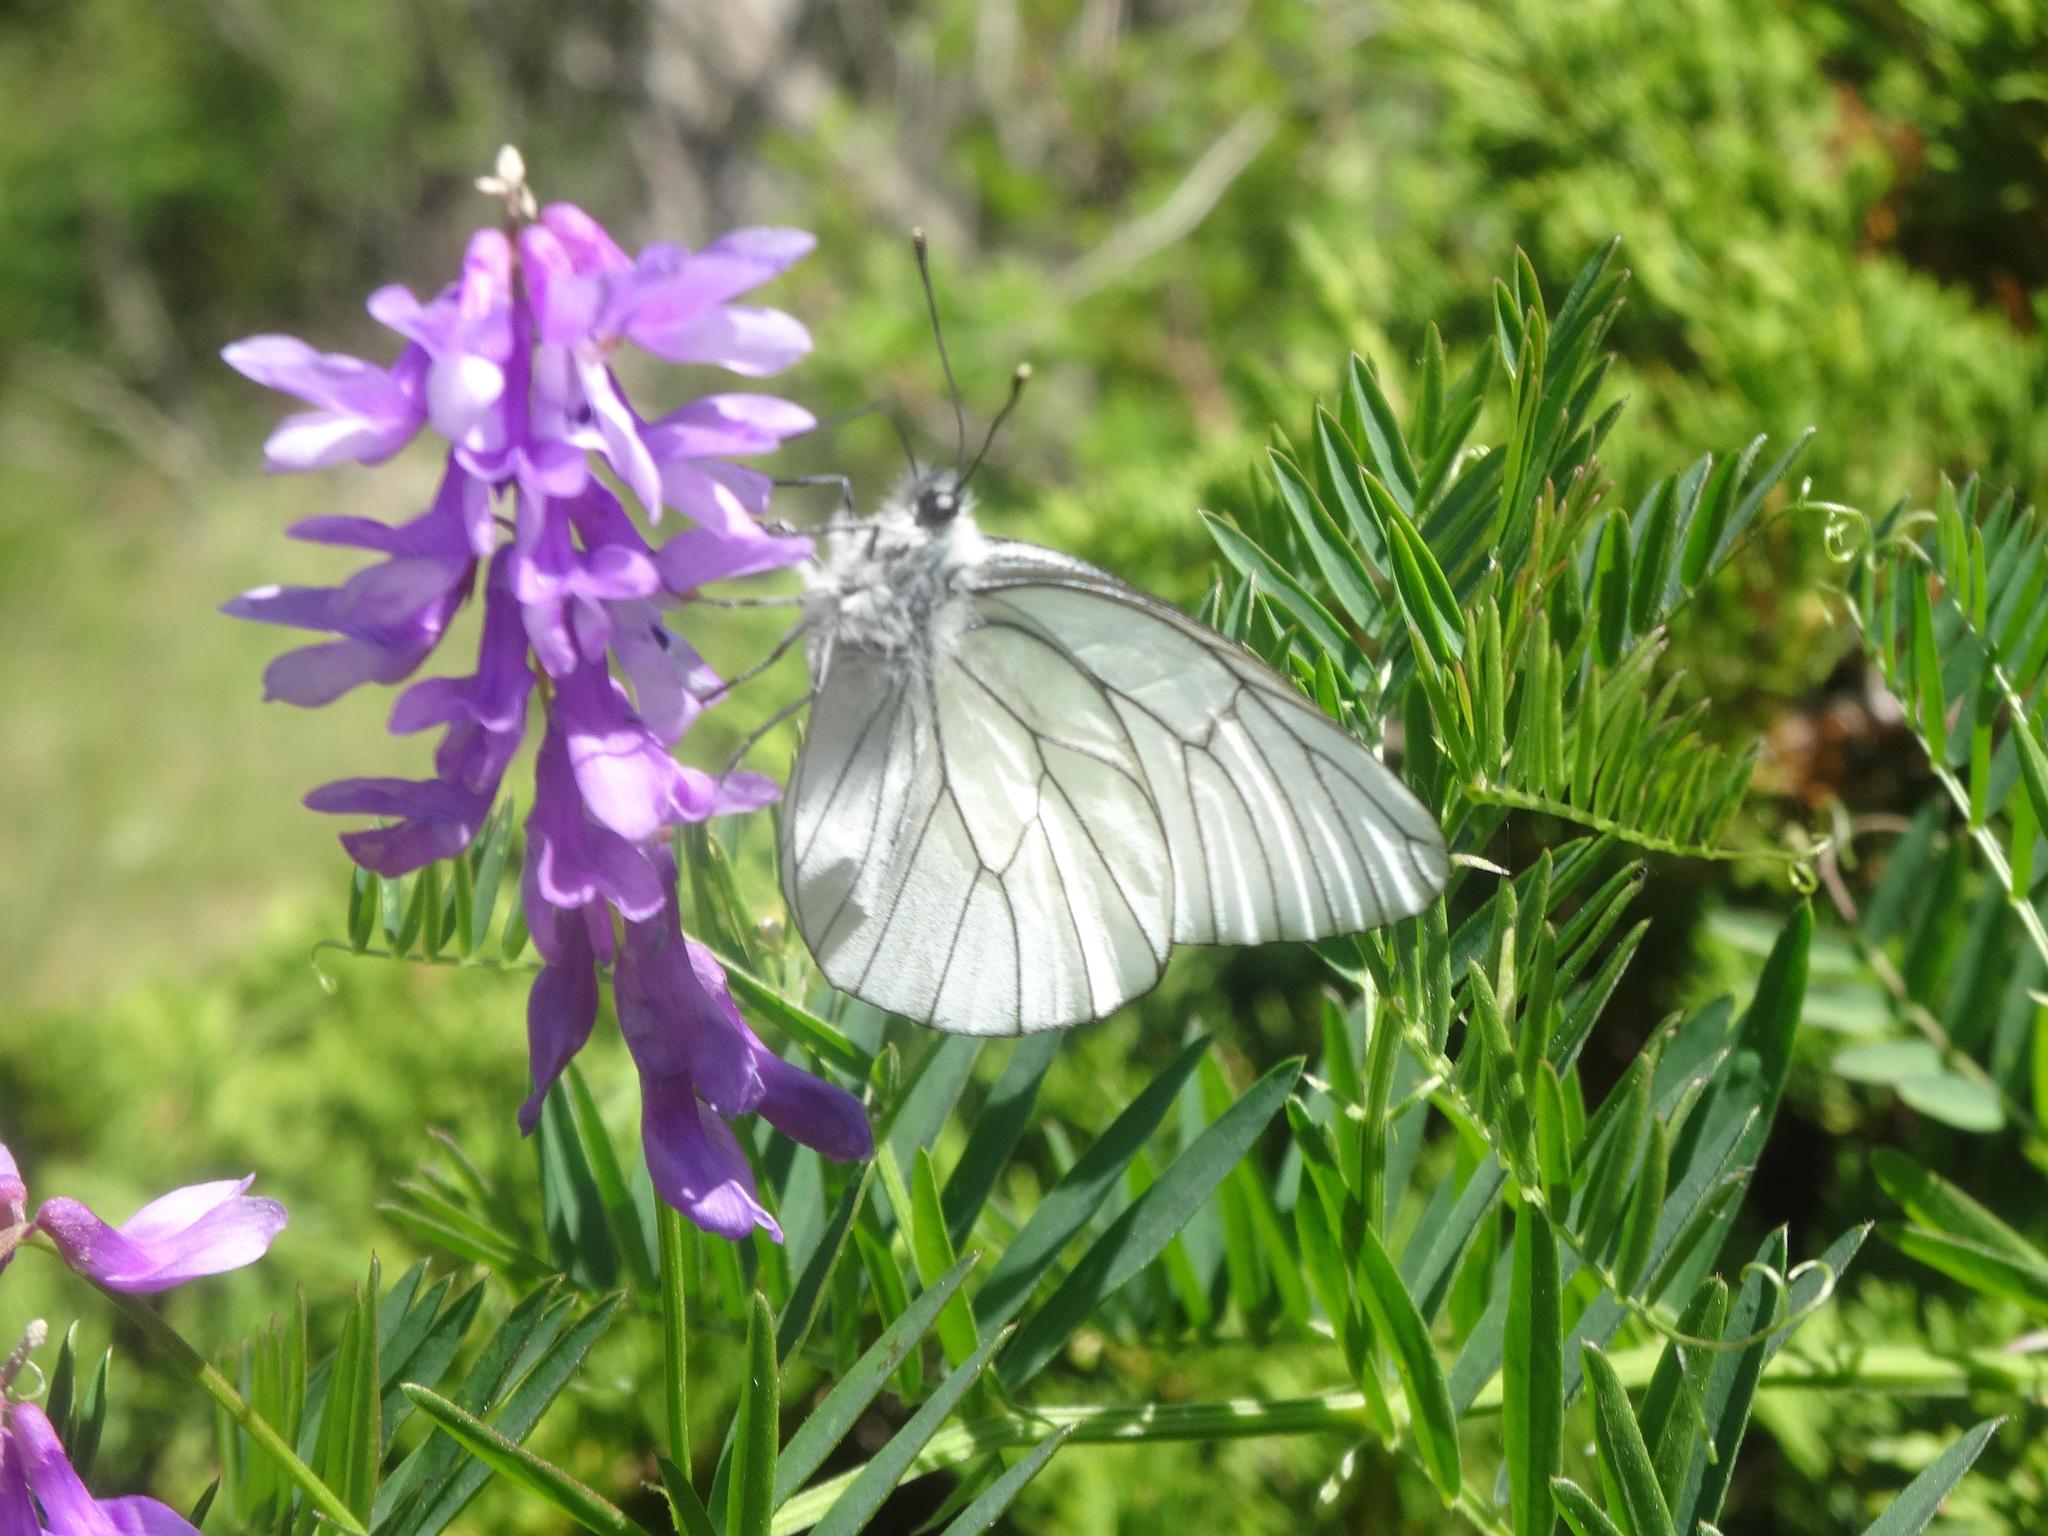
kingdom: Animalia
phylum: Arthropoda
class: Insecta
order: Lepidoptera
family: Pieridae
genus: Aporia
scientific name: Aporia crataegi
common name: Black-veined white
